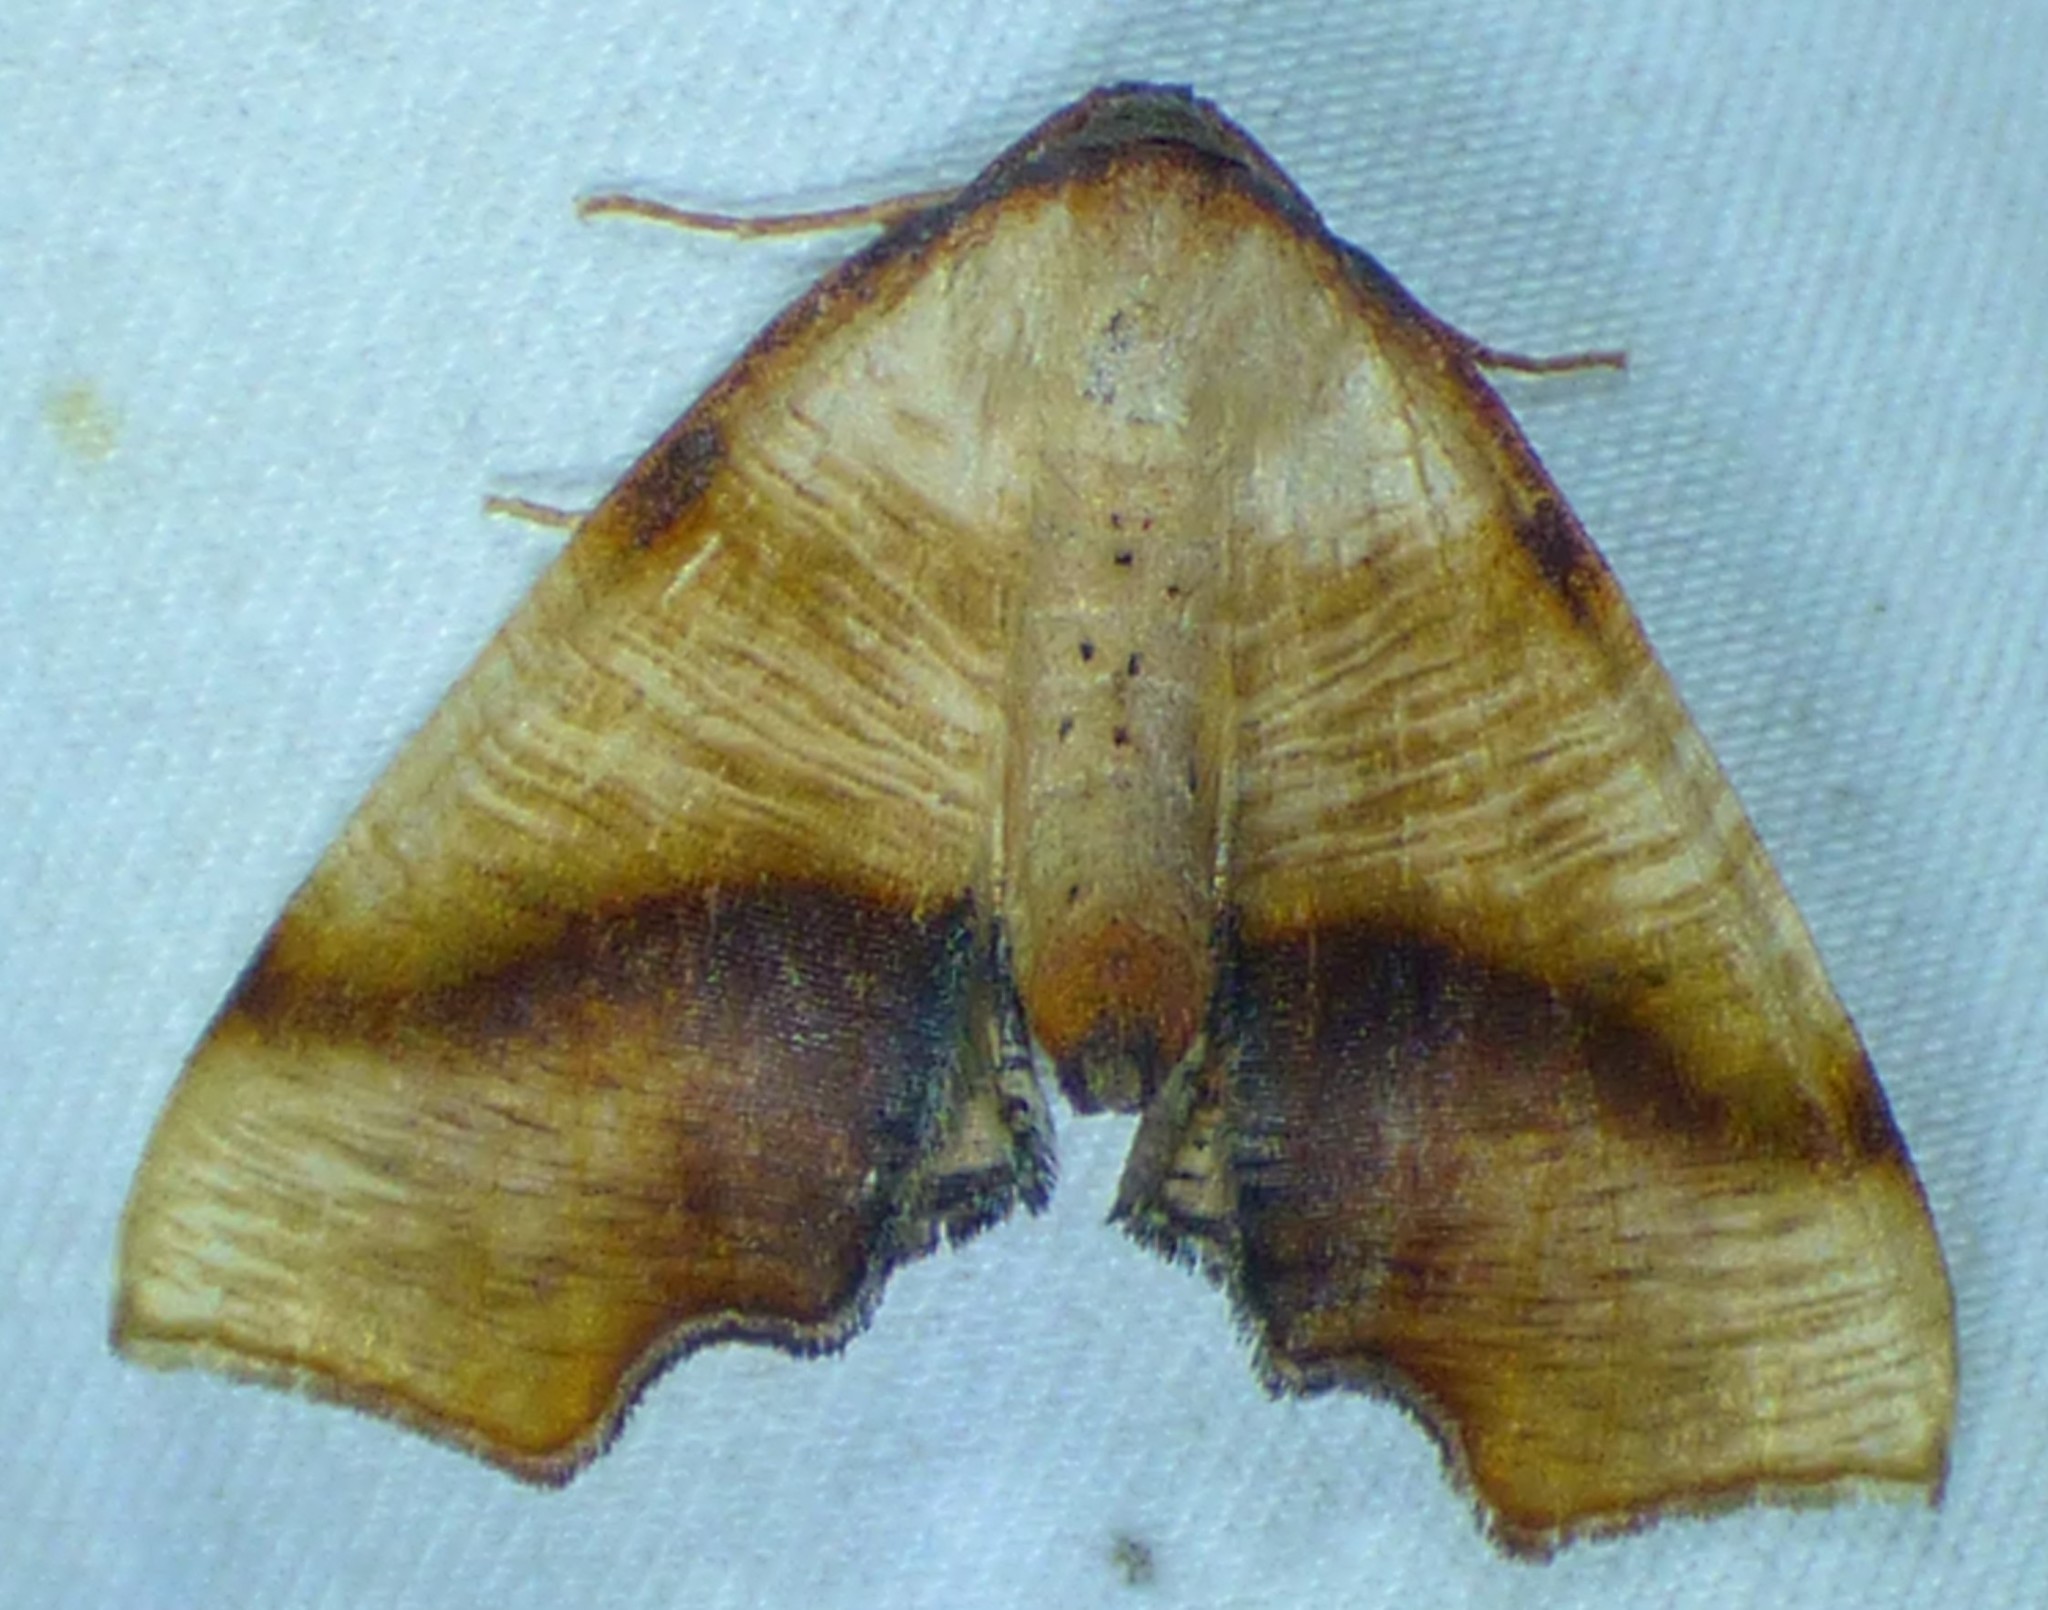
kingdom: Animalia
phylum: Arthropoda
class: Insecta
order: Lepidoptera
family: Geometridae
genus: Plagodis
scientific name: Plagodis fervidaria
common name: Fervid plagodis
